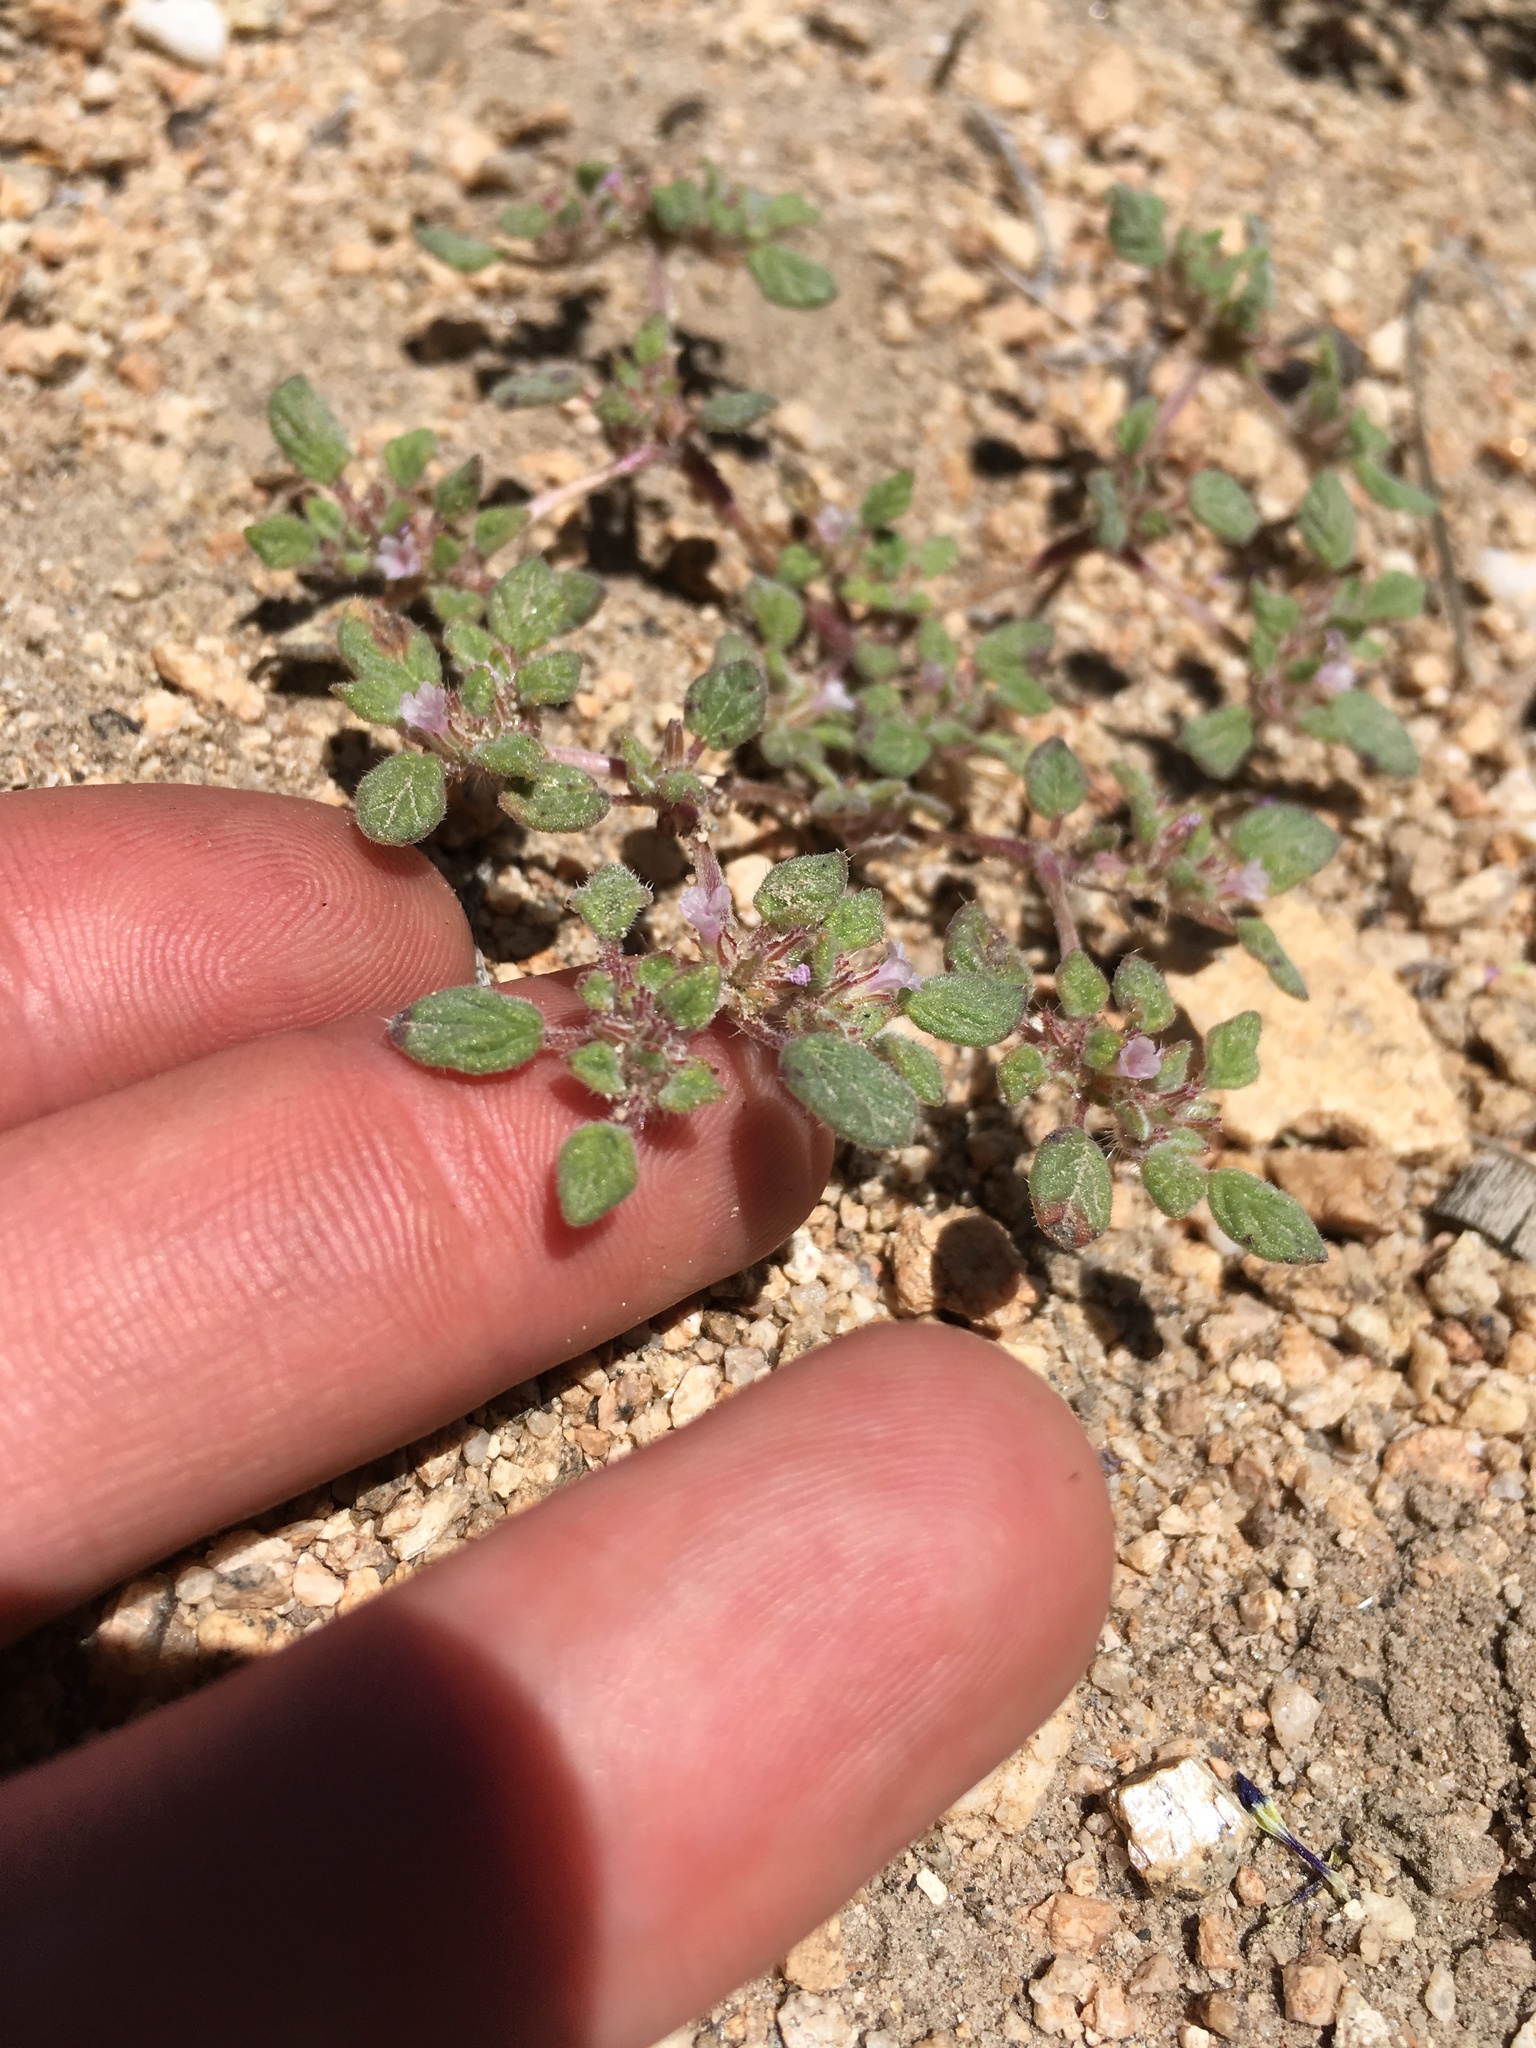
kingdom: Plantae
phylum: Tracheophyta
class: Magnoliopsida
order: Boraginales
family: Ehretiaceae
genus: Tiquilia
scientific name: Tiquilia nuttallii
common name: Rosette tiquilia
